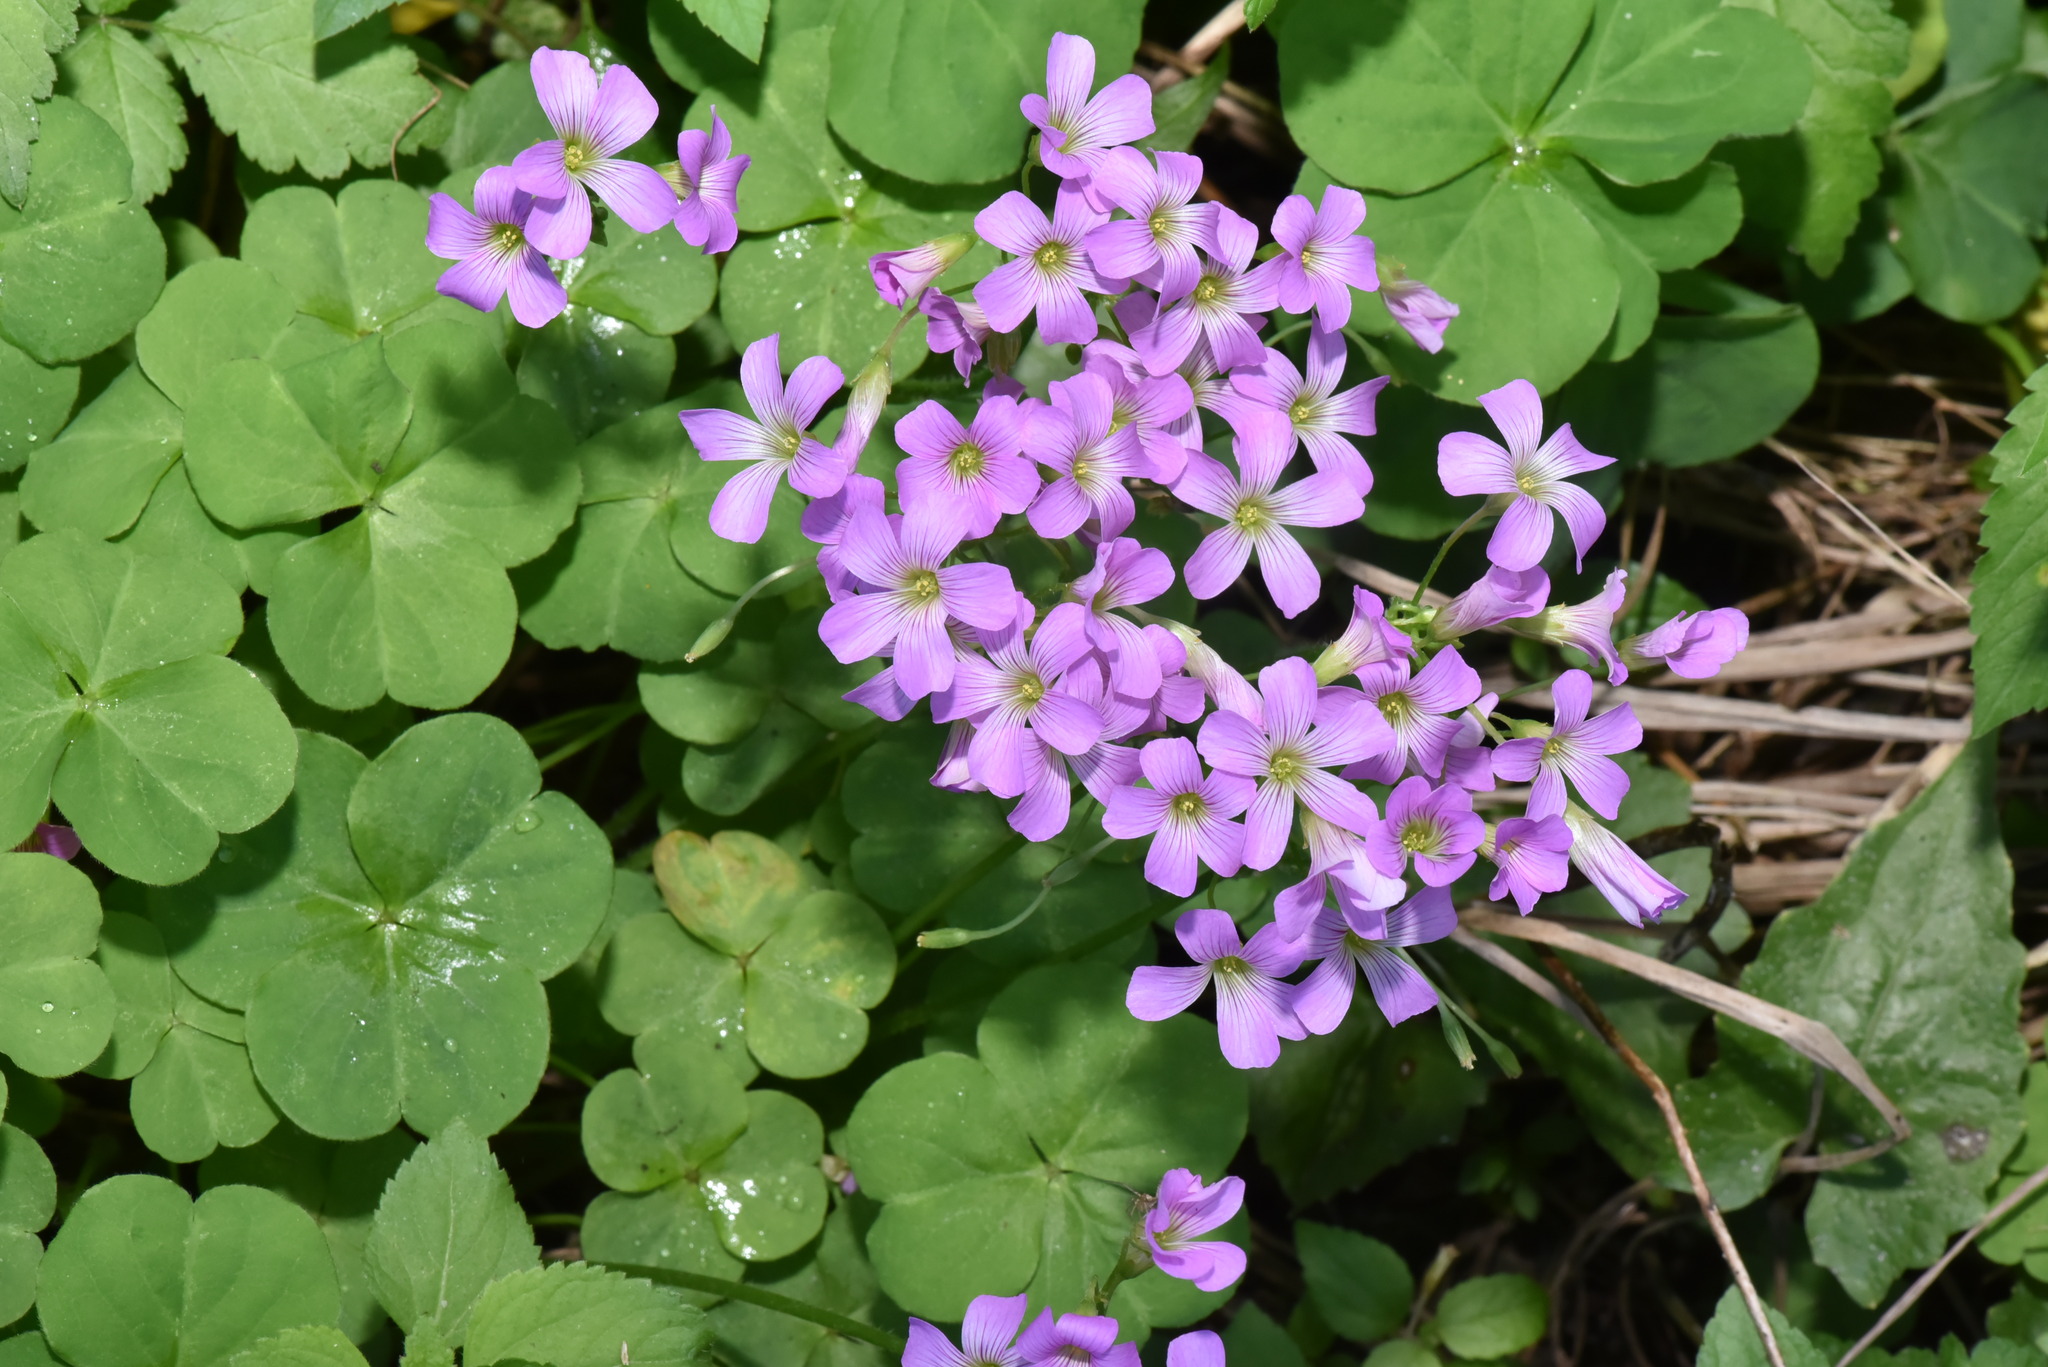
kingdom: Plantae
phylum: Tracheophyta
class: Magnoliopsida
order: Oxalidales
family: Oxalidaceae
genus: Oxalis
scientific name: Oxalis debilis
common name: Large-flowered pink-sorrel
